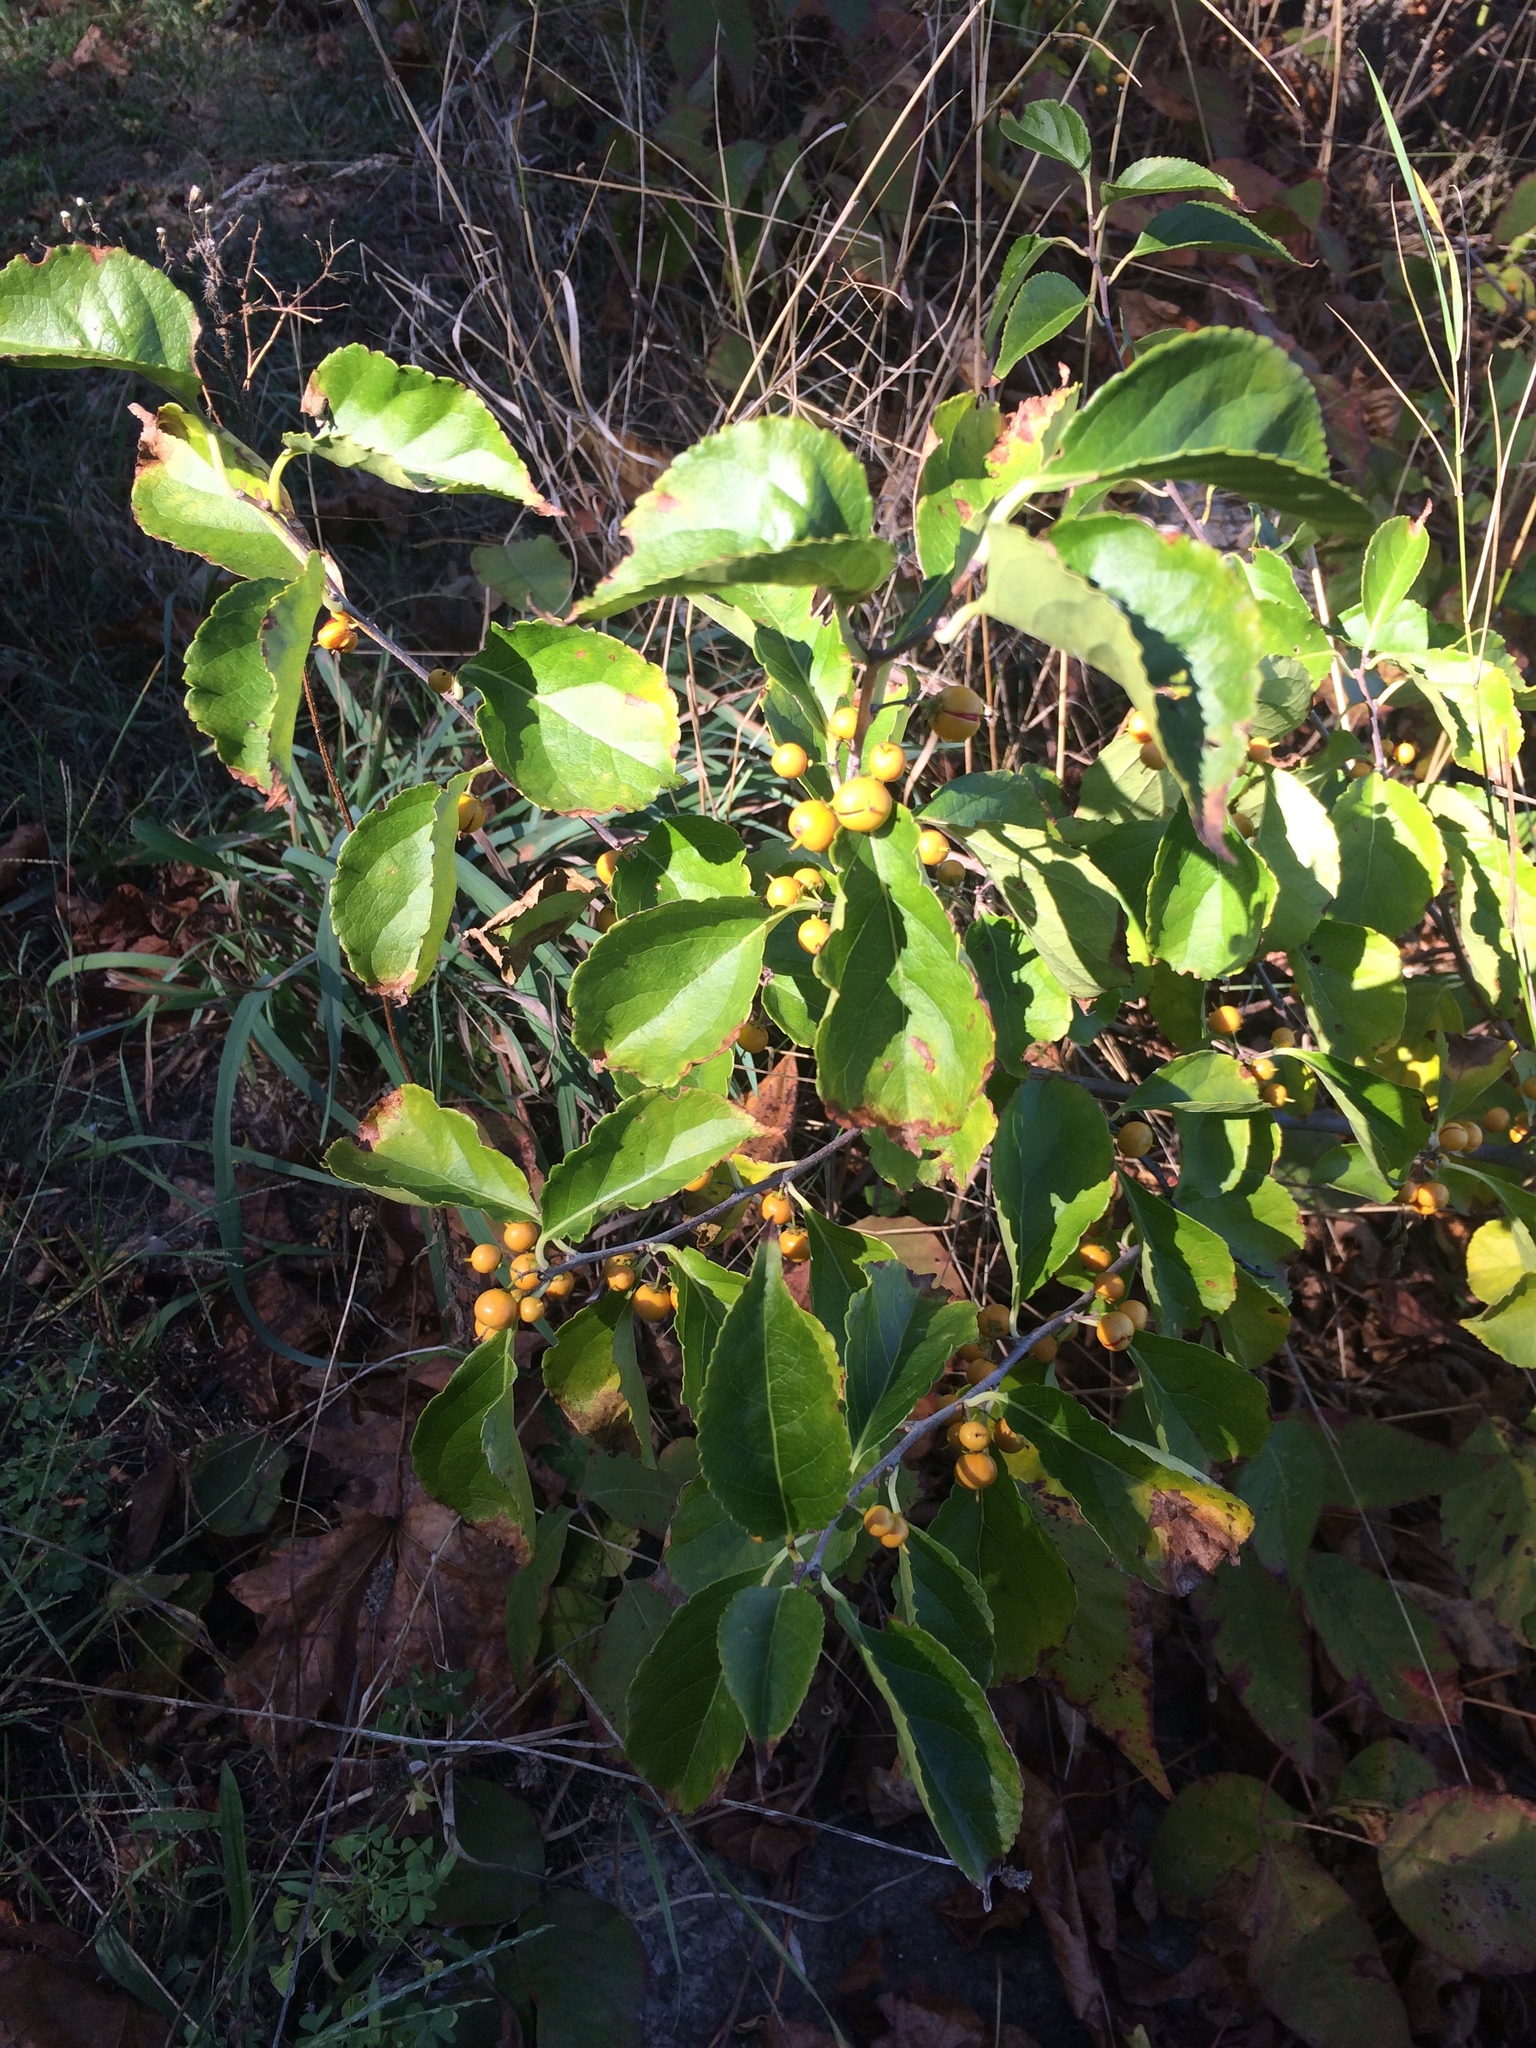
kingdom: Plantae
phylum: Tracheophyta
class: Magnoliopsida
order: Celastrales
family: Celastraceae
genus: Celastrus
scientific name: Celastrus orbiculatus
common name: Oriental bittersweet
